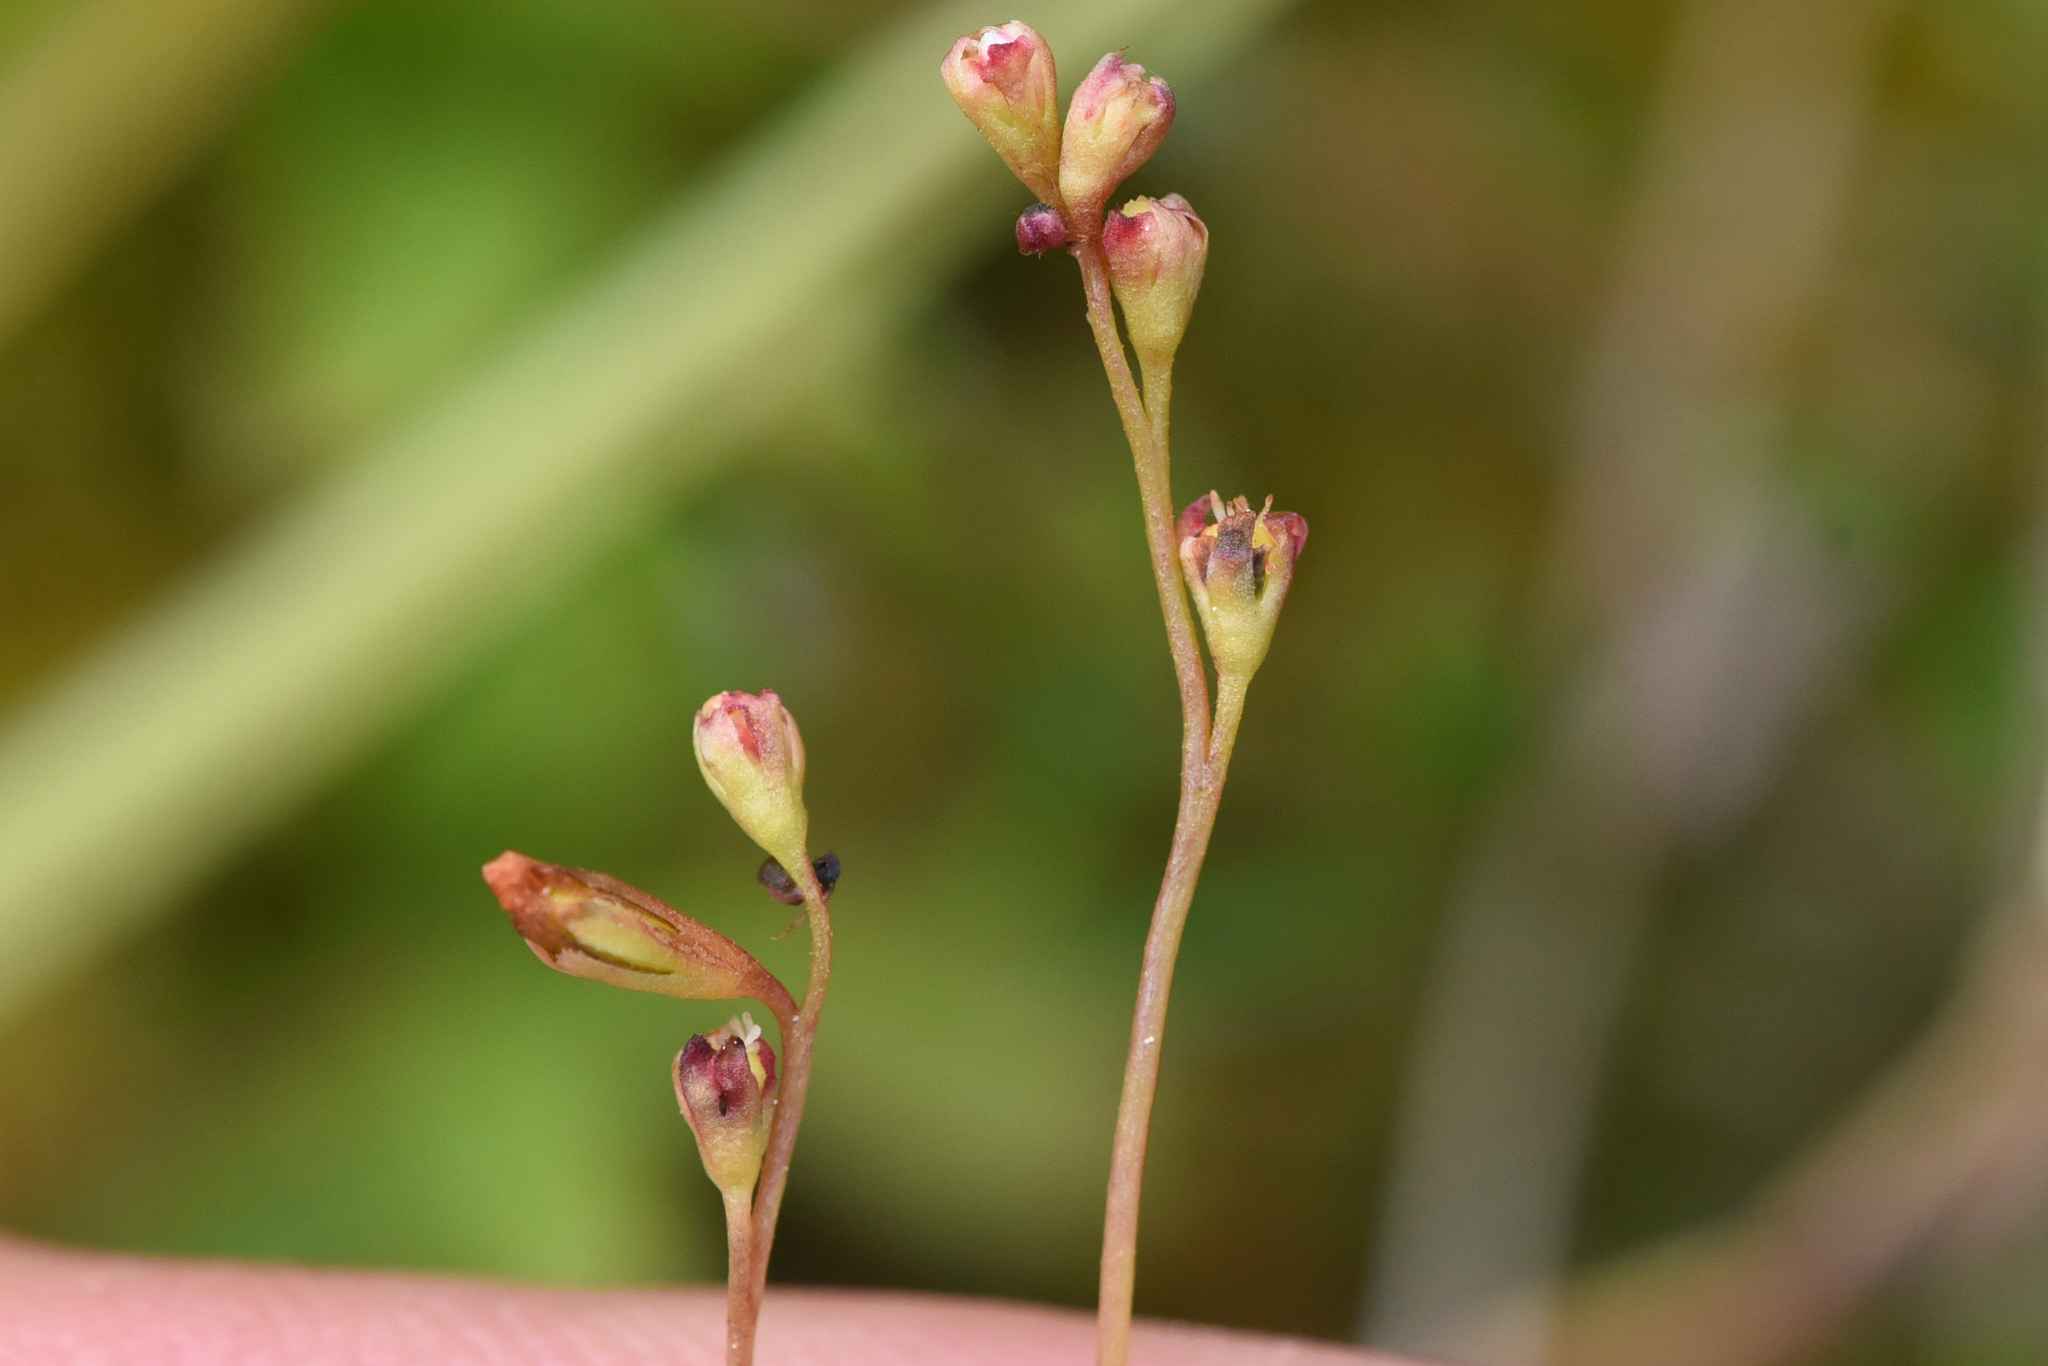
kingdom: Plantae
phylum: Tracheophyta
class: Magnoliopsida
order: Asterales
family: Campanulaceae
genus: Lobelia
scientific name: Lobelia kalmii
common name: Kalm's lobelia
